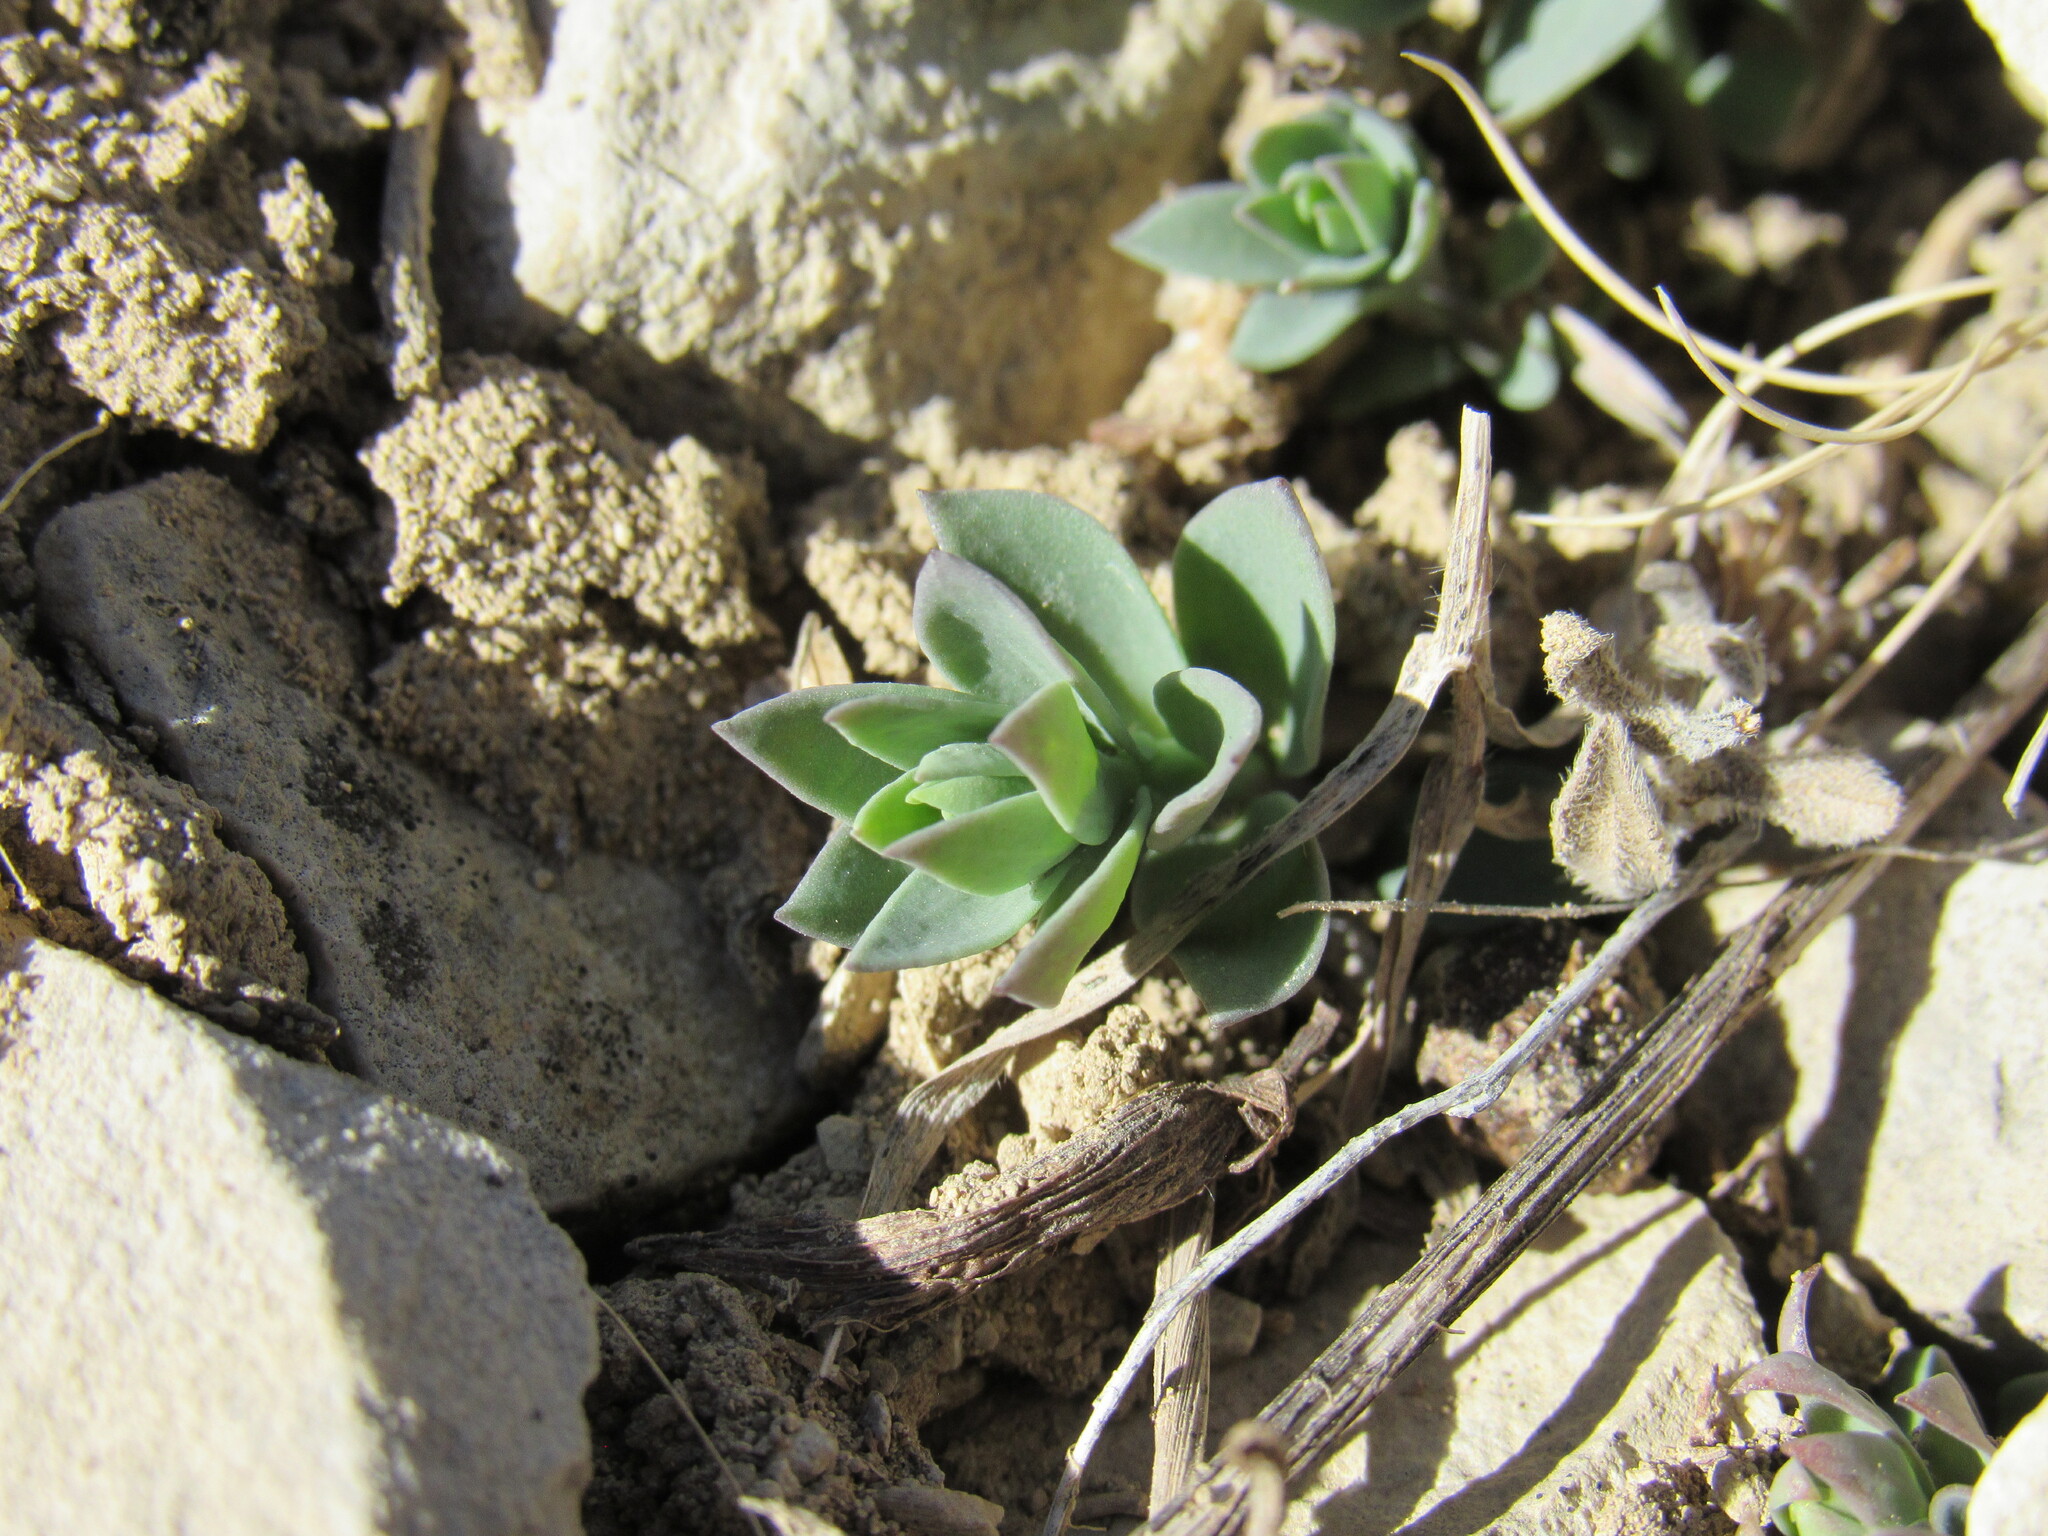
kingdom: Plantae
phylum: Tracheophyta
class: Magnoliopsida
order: Lamiales
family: Plantaginaceae
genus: Linaria
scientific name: Linaria dalmatica
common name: Dalmatian toadflax
